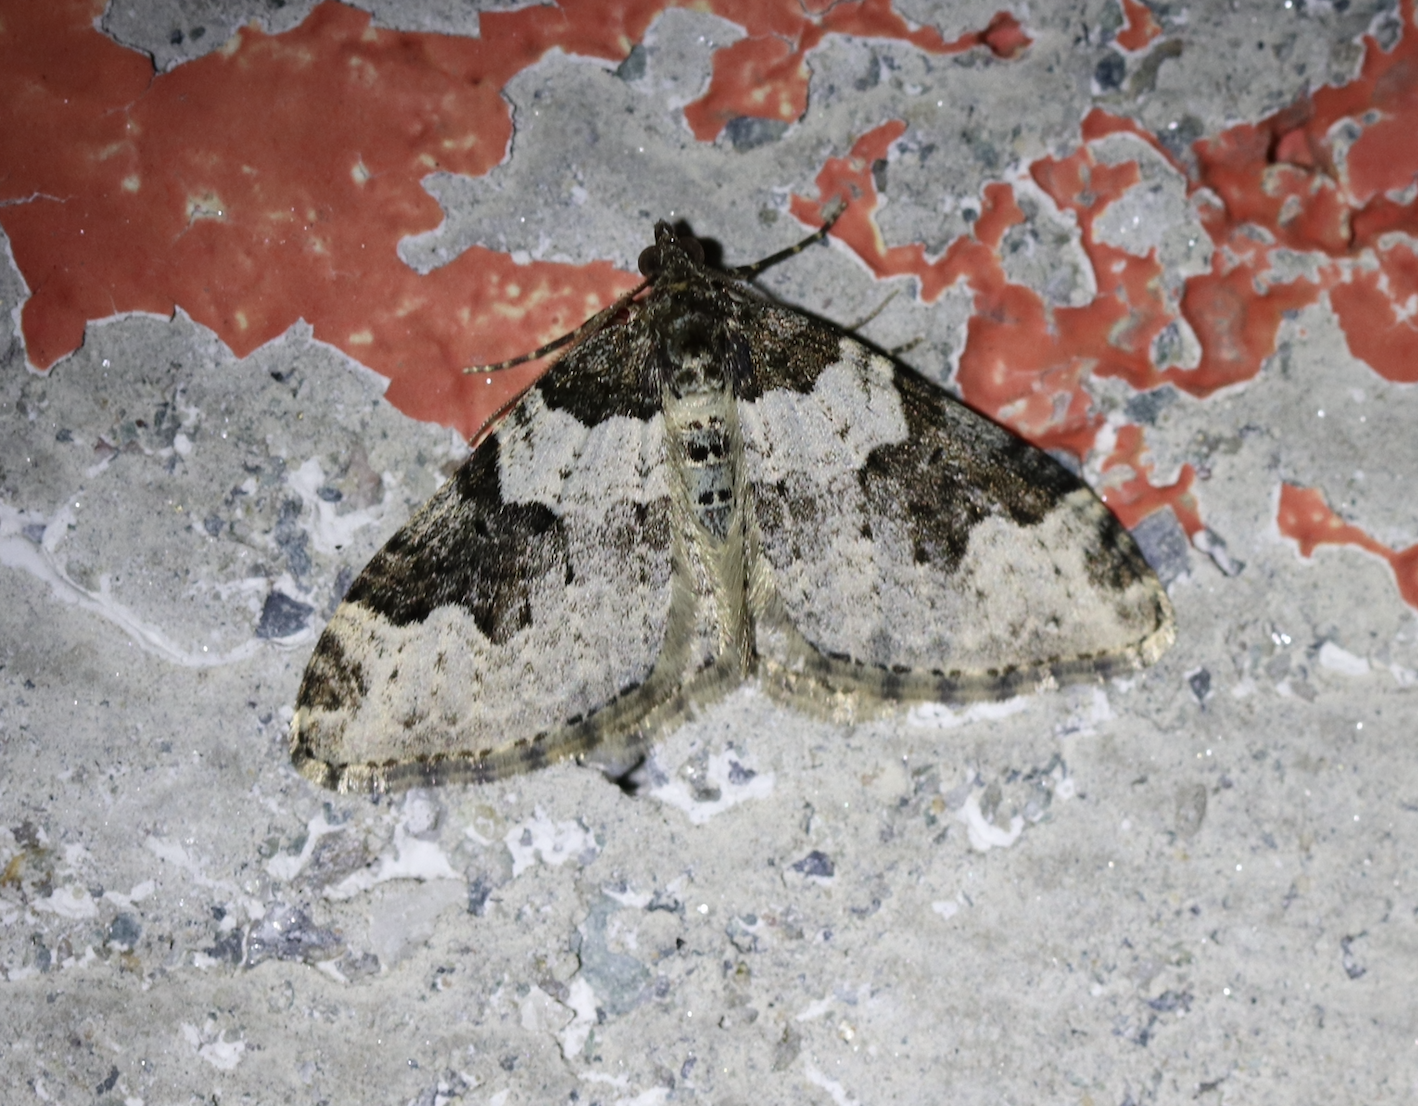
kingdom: Animalia
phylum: Arthropoda
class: Insecta
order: Lepidoptera
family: Geometridae
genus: Xanthorhoe
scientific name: Xanthorhoe fluctuata
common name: Garden carpet
